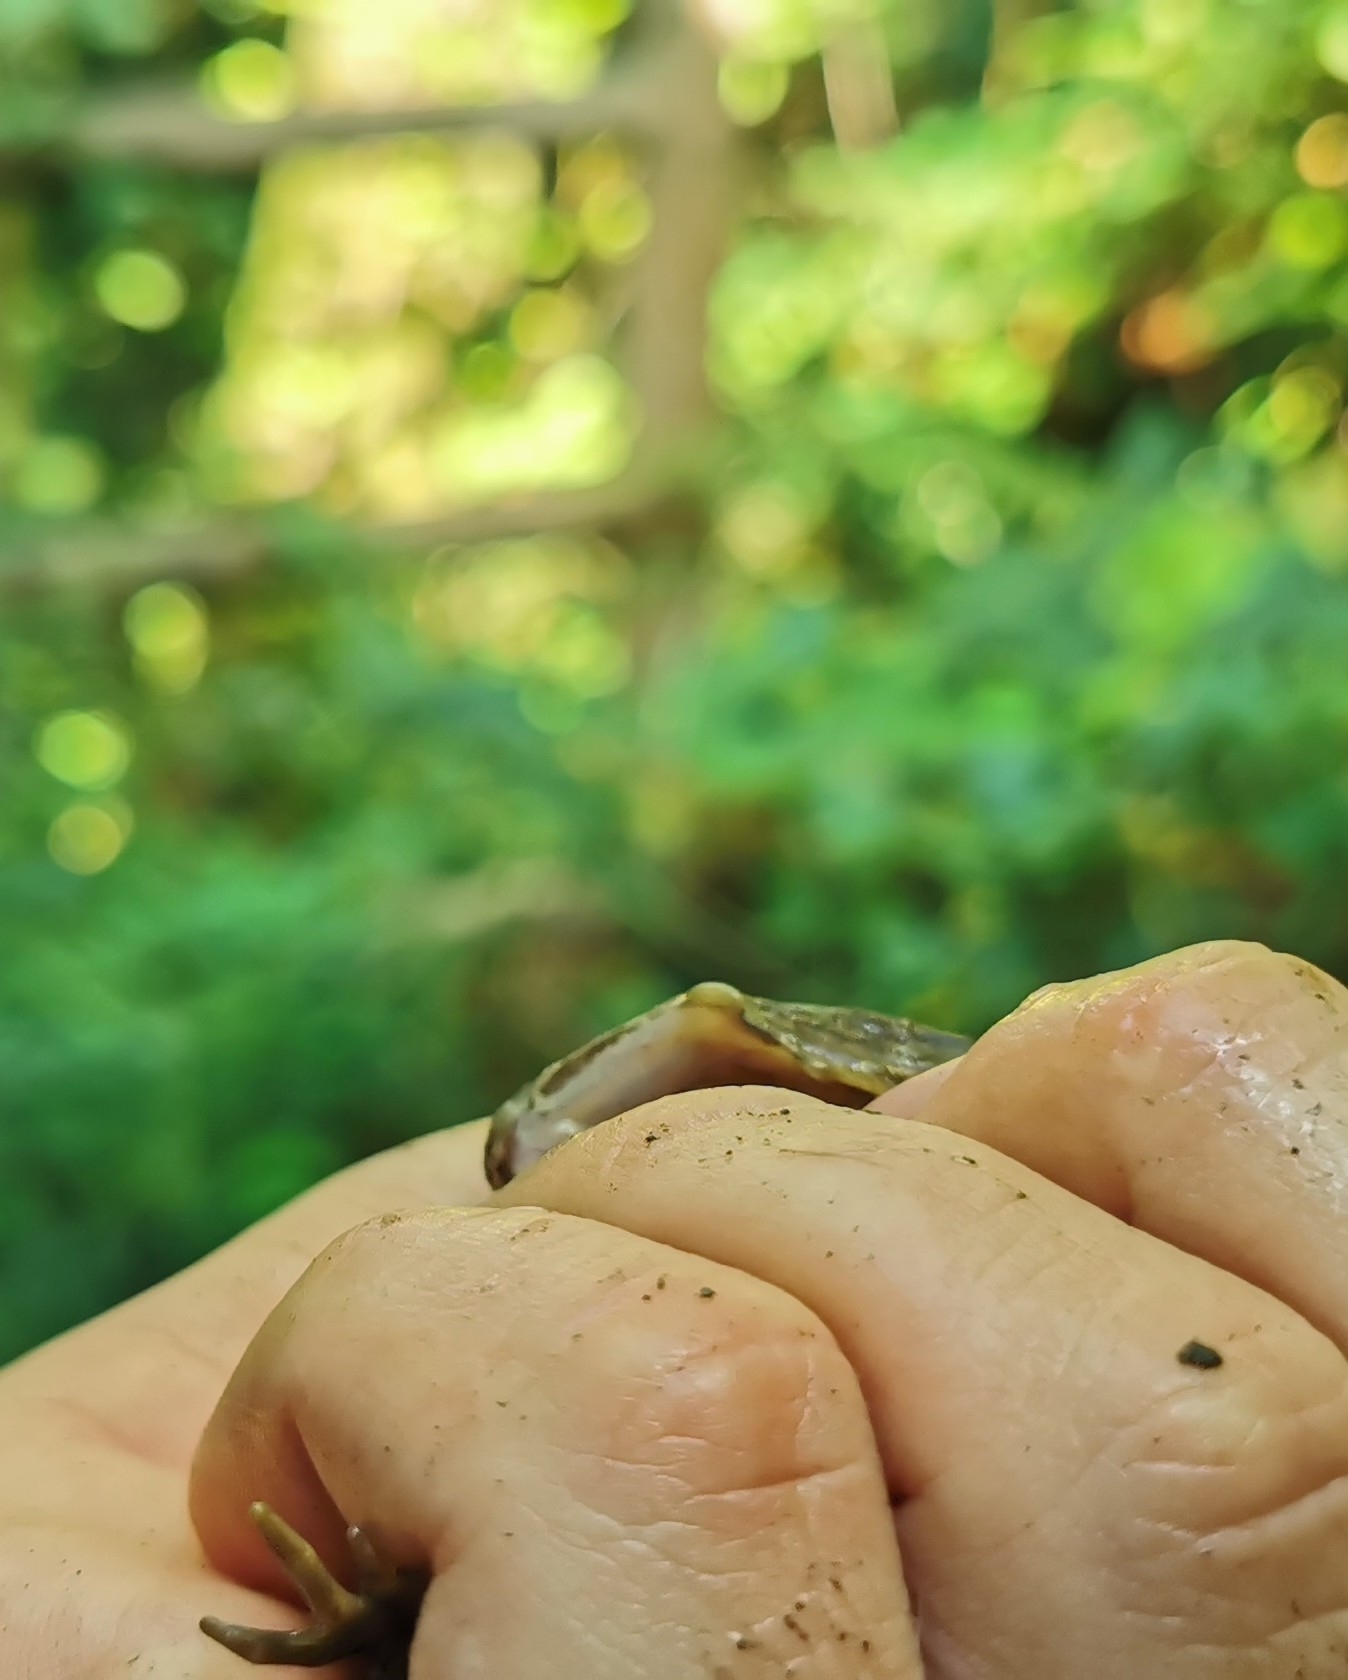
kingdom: Animalia
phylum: Chordata
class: Amphibia
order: Anura
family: Ranidae
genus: Pelophylax
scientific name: Pelophylax
